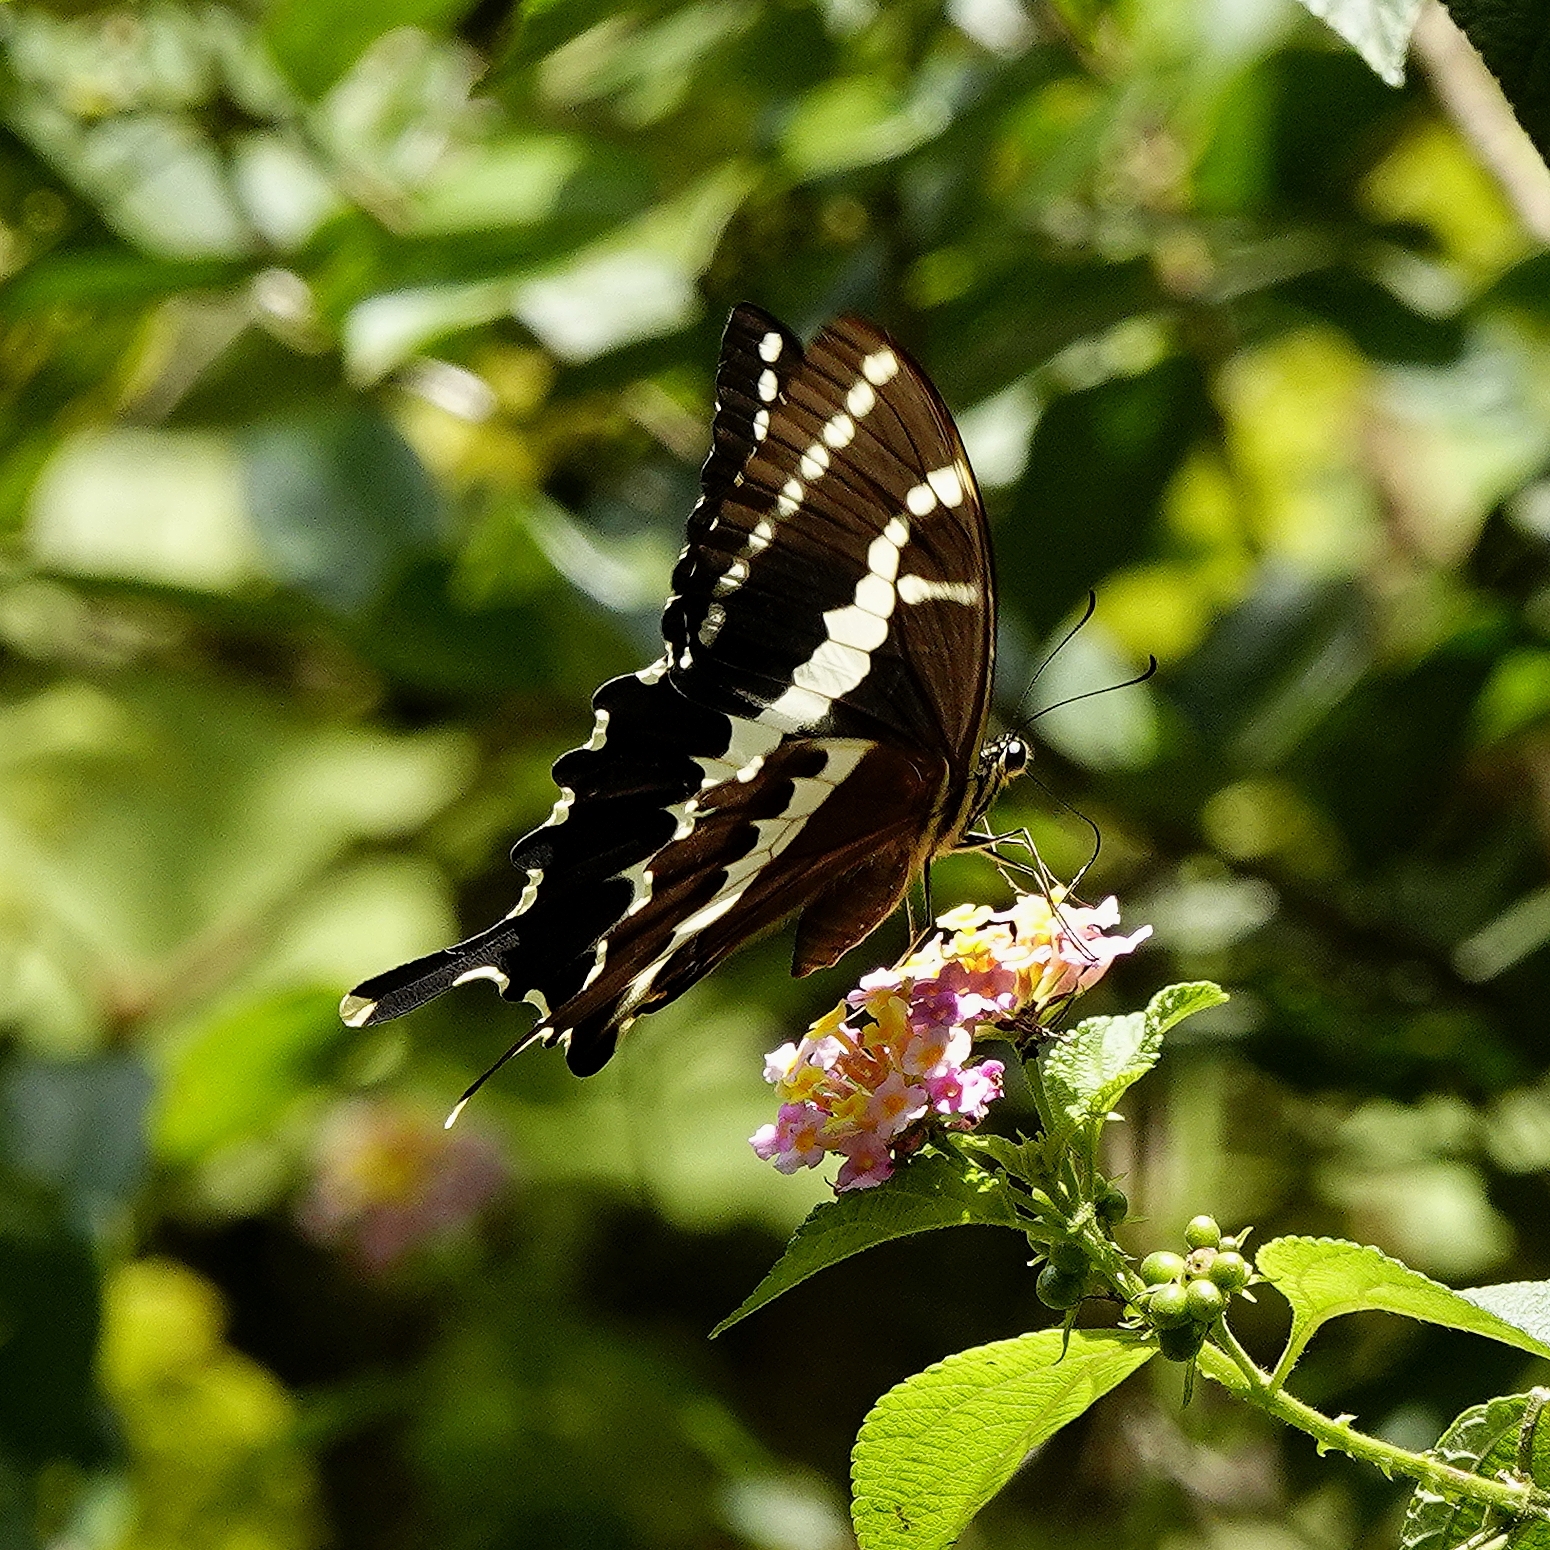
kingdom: Animalia
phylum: Arthropoda
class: Insecta
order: Lepidoptera
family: Papilionidae
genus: Papilio
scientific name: Papilio delalandei
